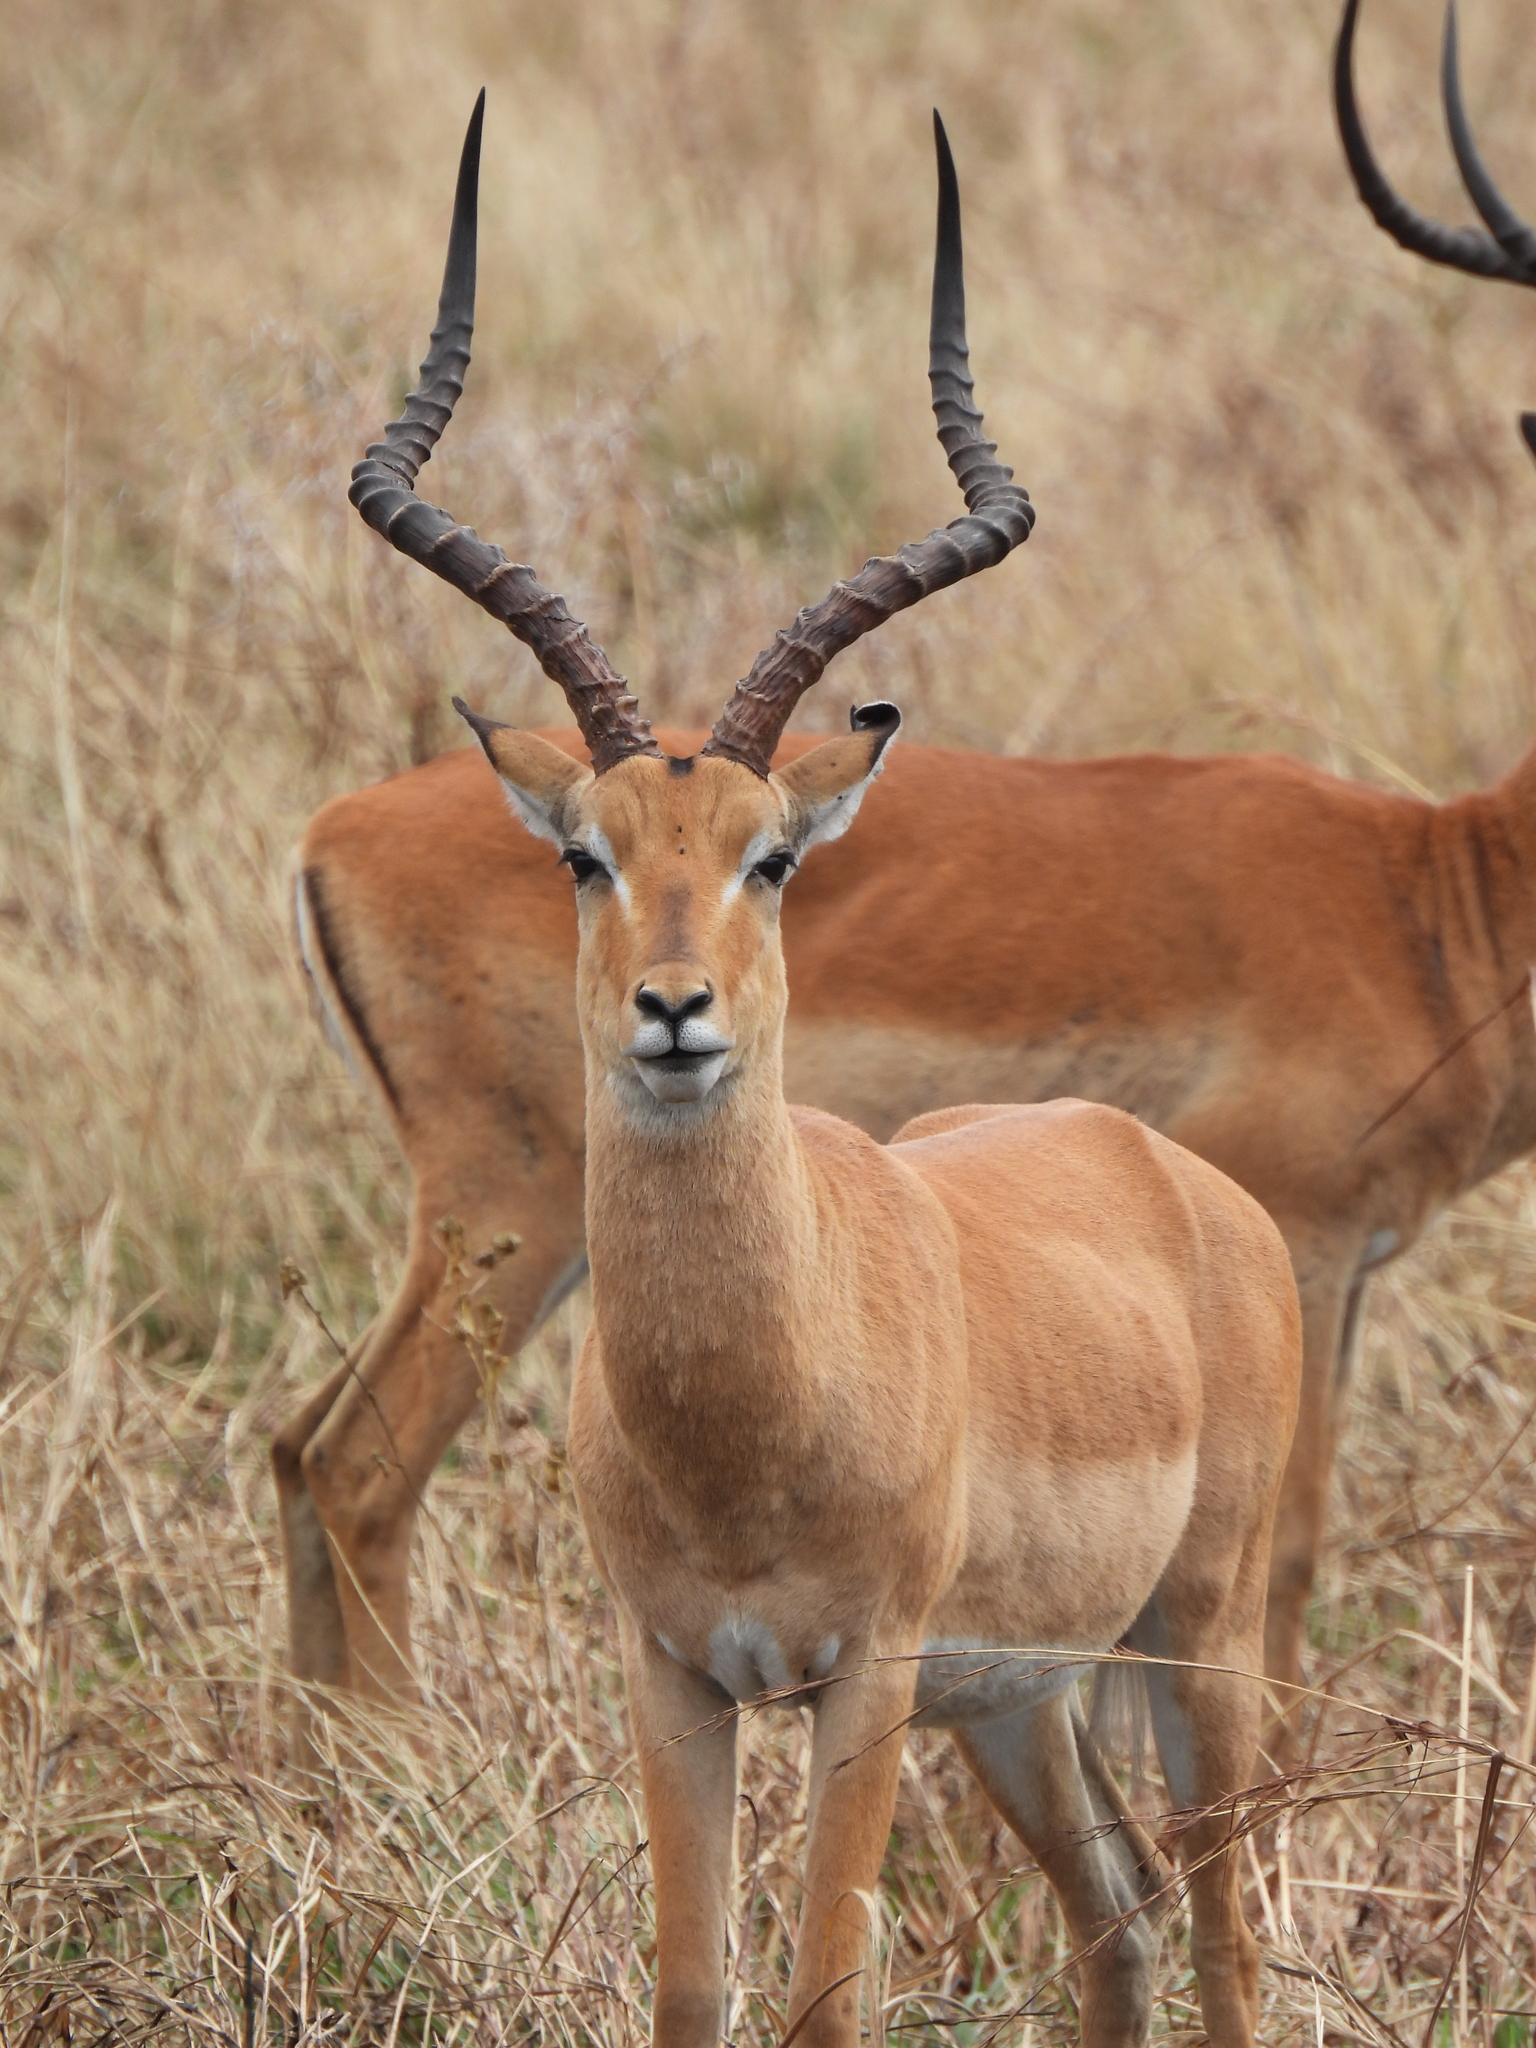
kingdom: Animalia
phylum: Chordata
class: Mammalia
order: Artiodactyla
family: Bovidae
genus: Aepyceros
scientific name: Aepyceros melampus
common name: Impala
